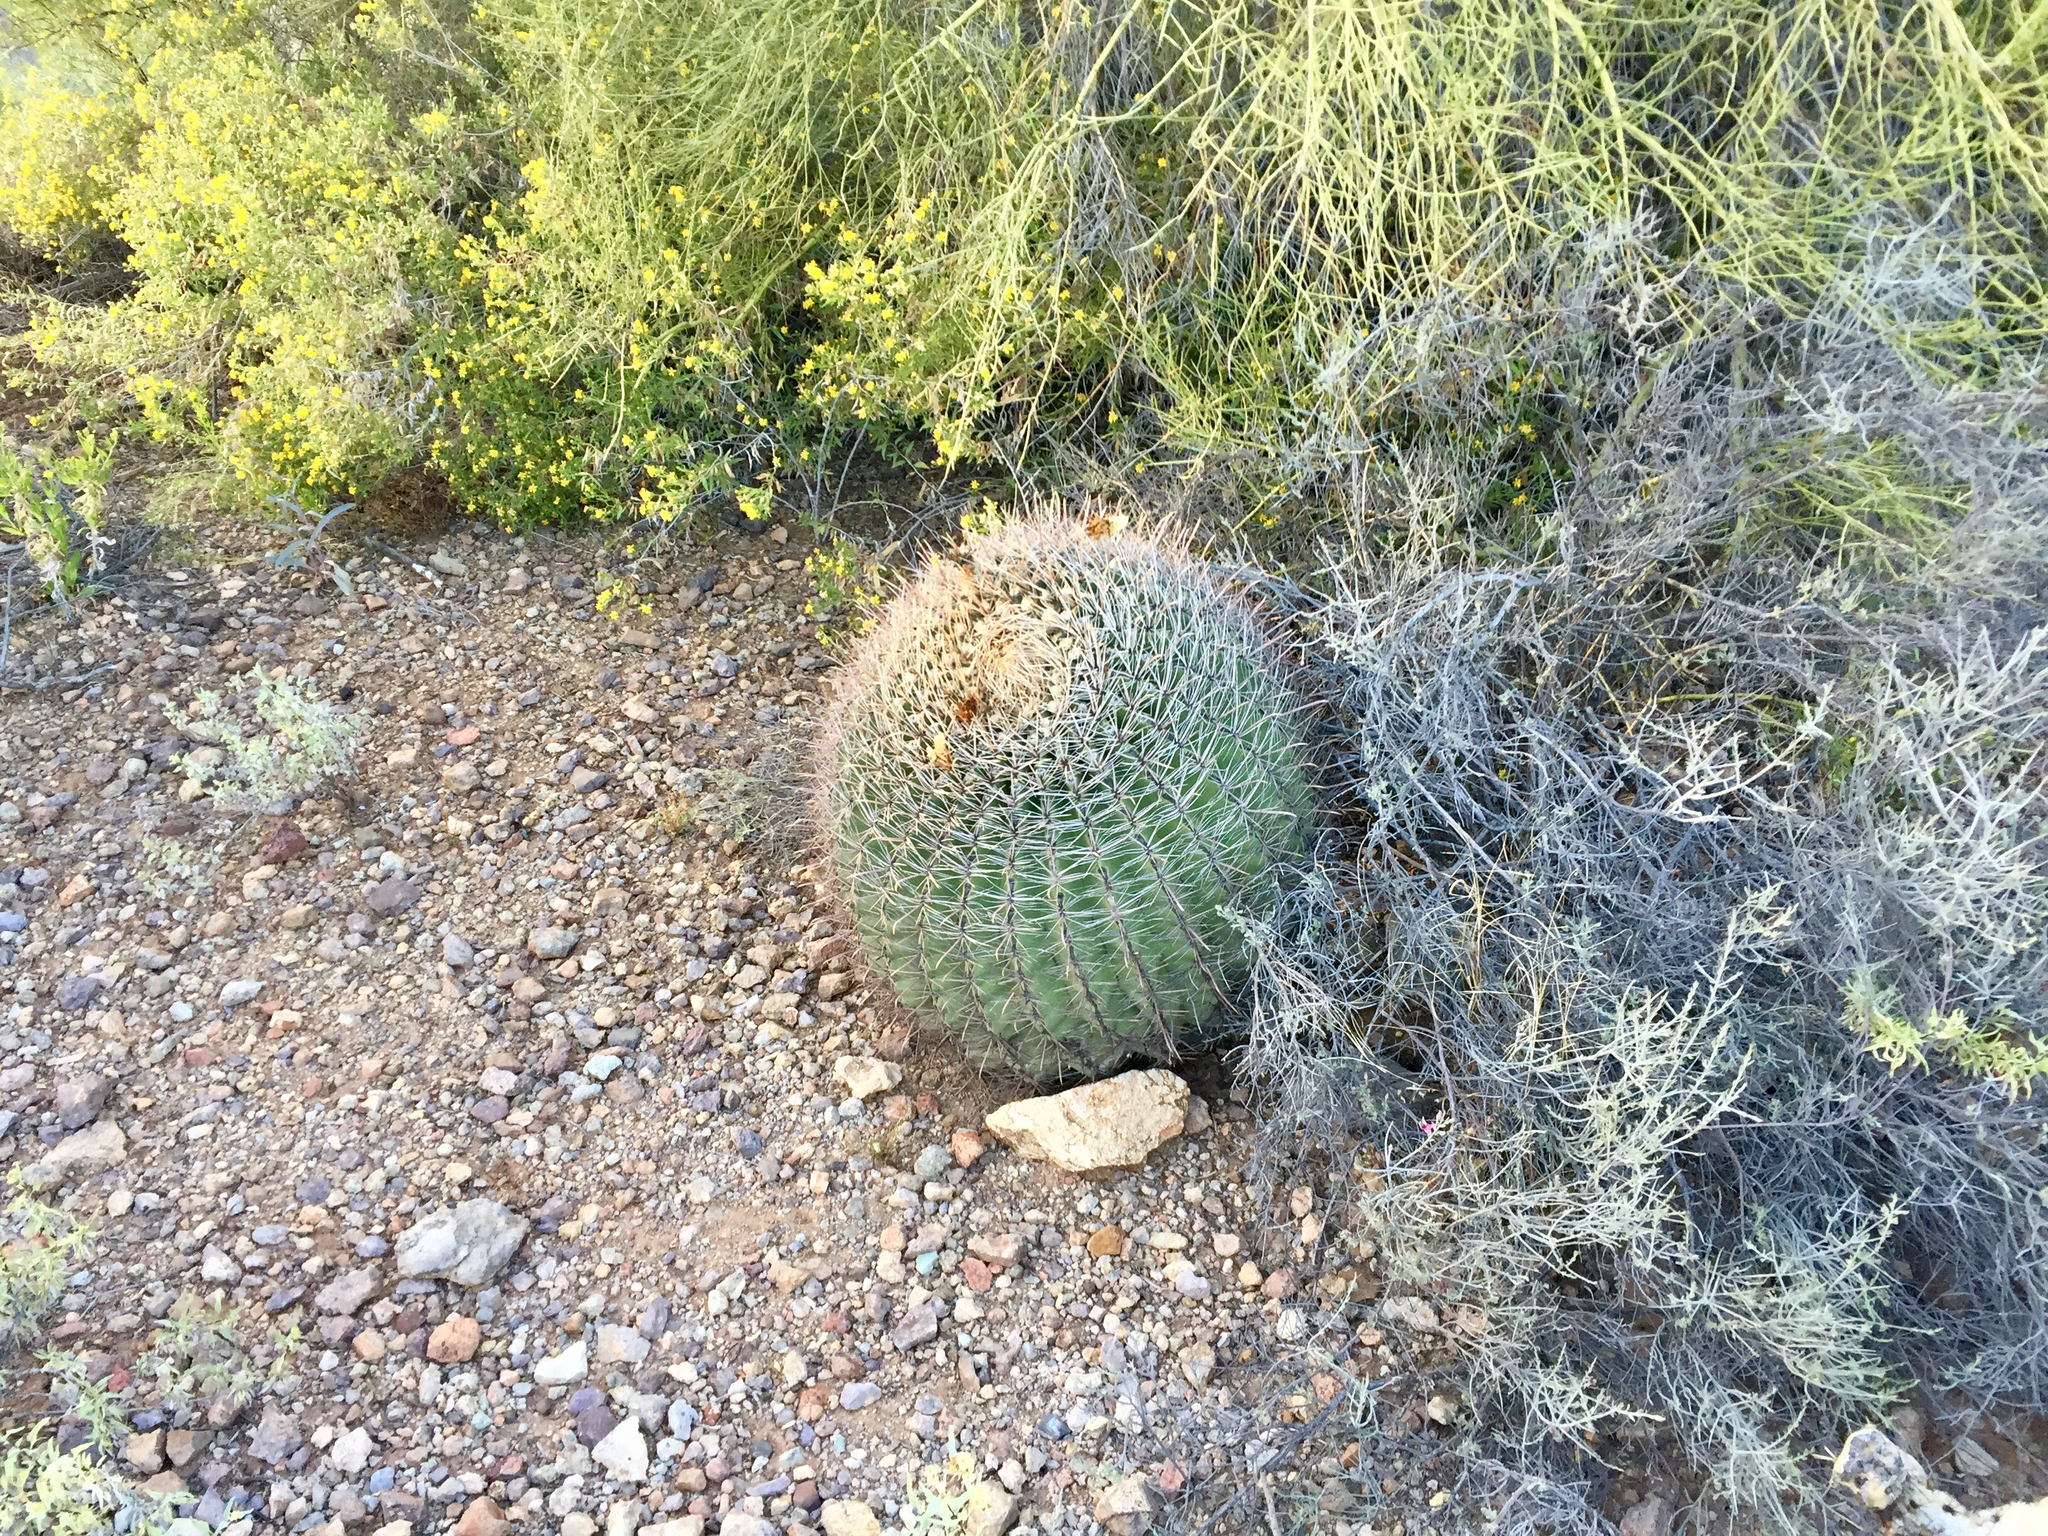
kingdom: Plantae
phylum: Tracheophyta
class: Magnoliopsida
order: Caryophyllales
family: Cactaceae
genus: Ferocactus
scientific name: Ferocactus wislizeni
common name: Candy barrel cactus
